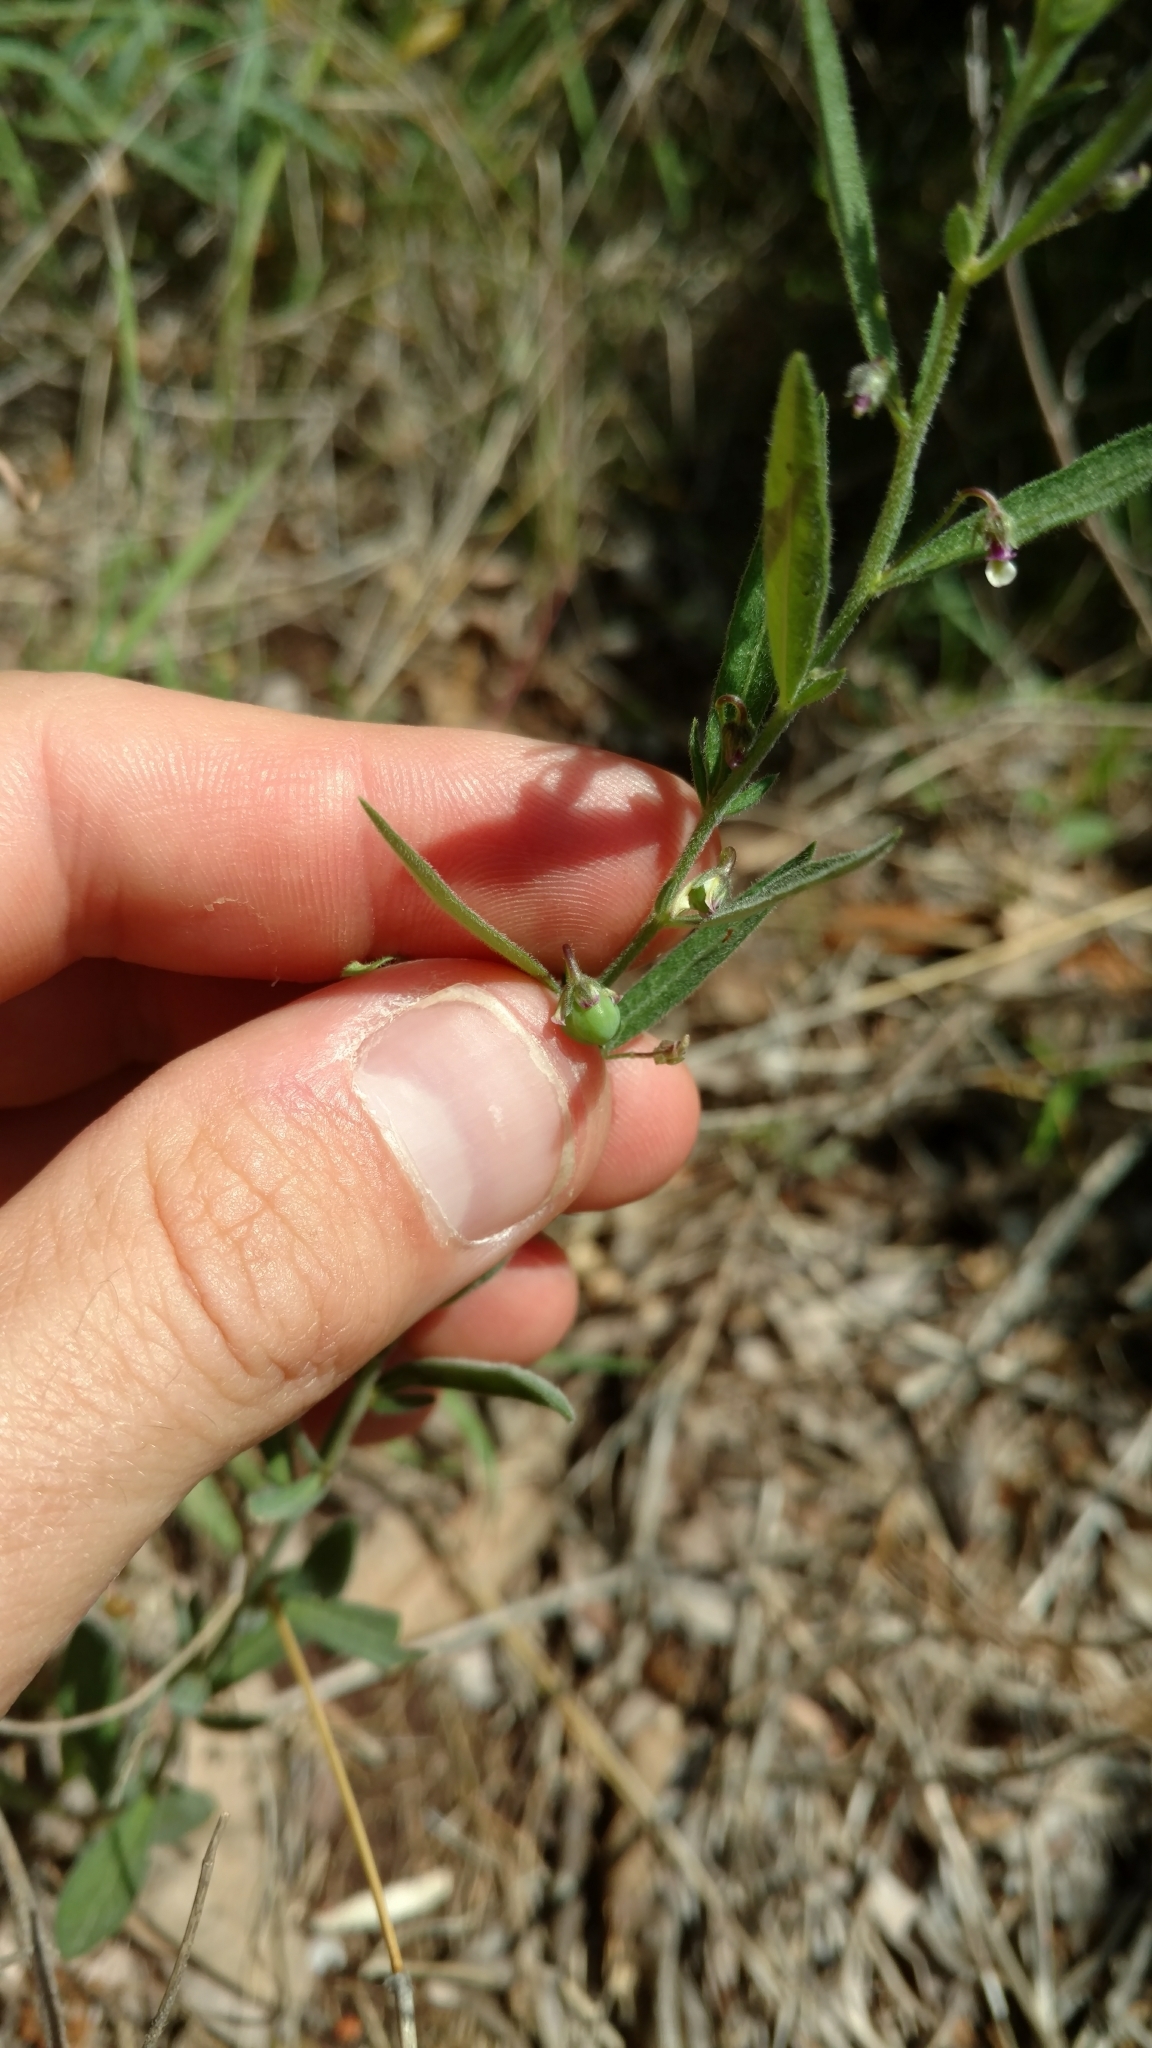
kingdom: Plantae
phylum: Tracheophyta
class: Magnoliopsida
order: Malpighiales
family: Violaceae
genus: Pombalia
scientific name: Pombalia verticillata
